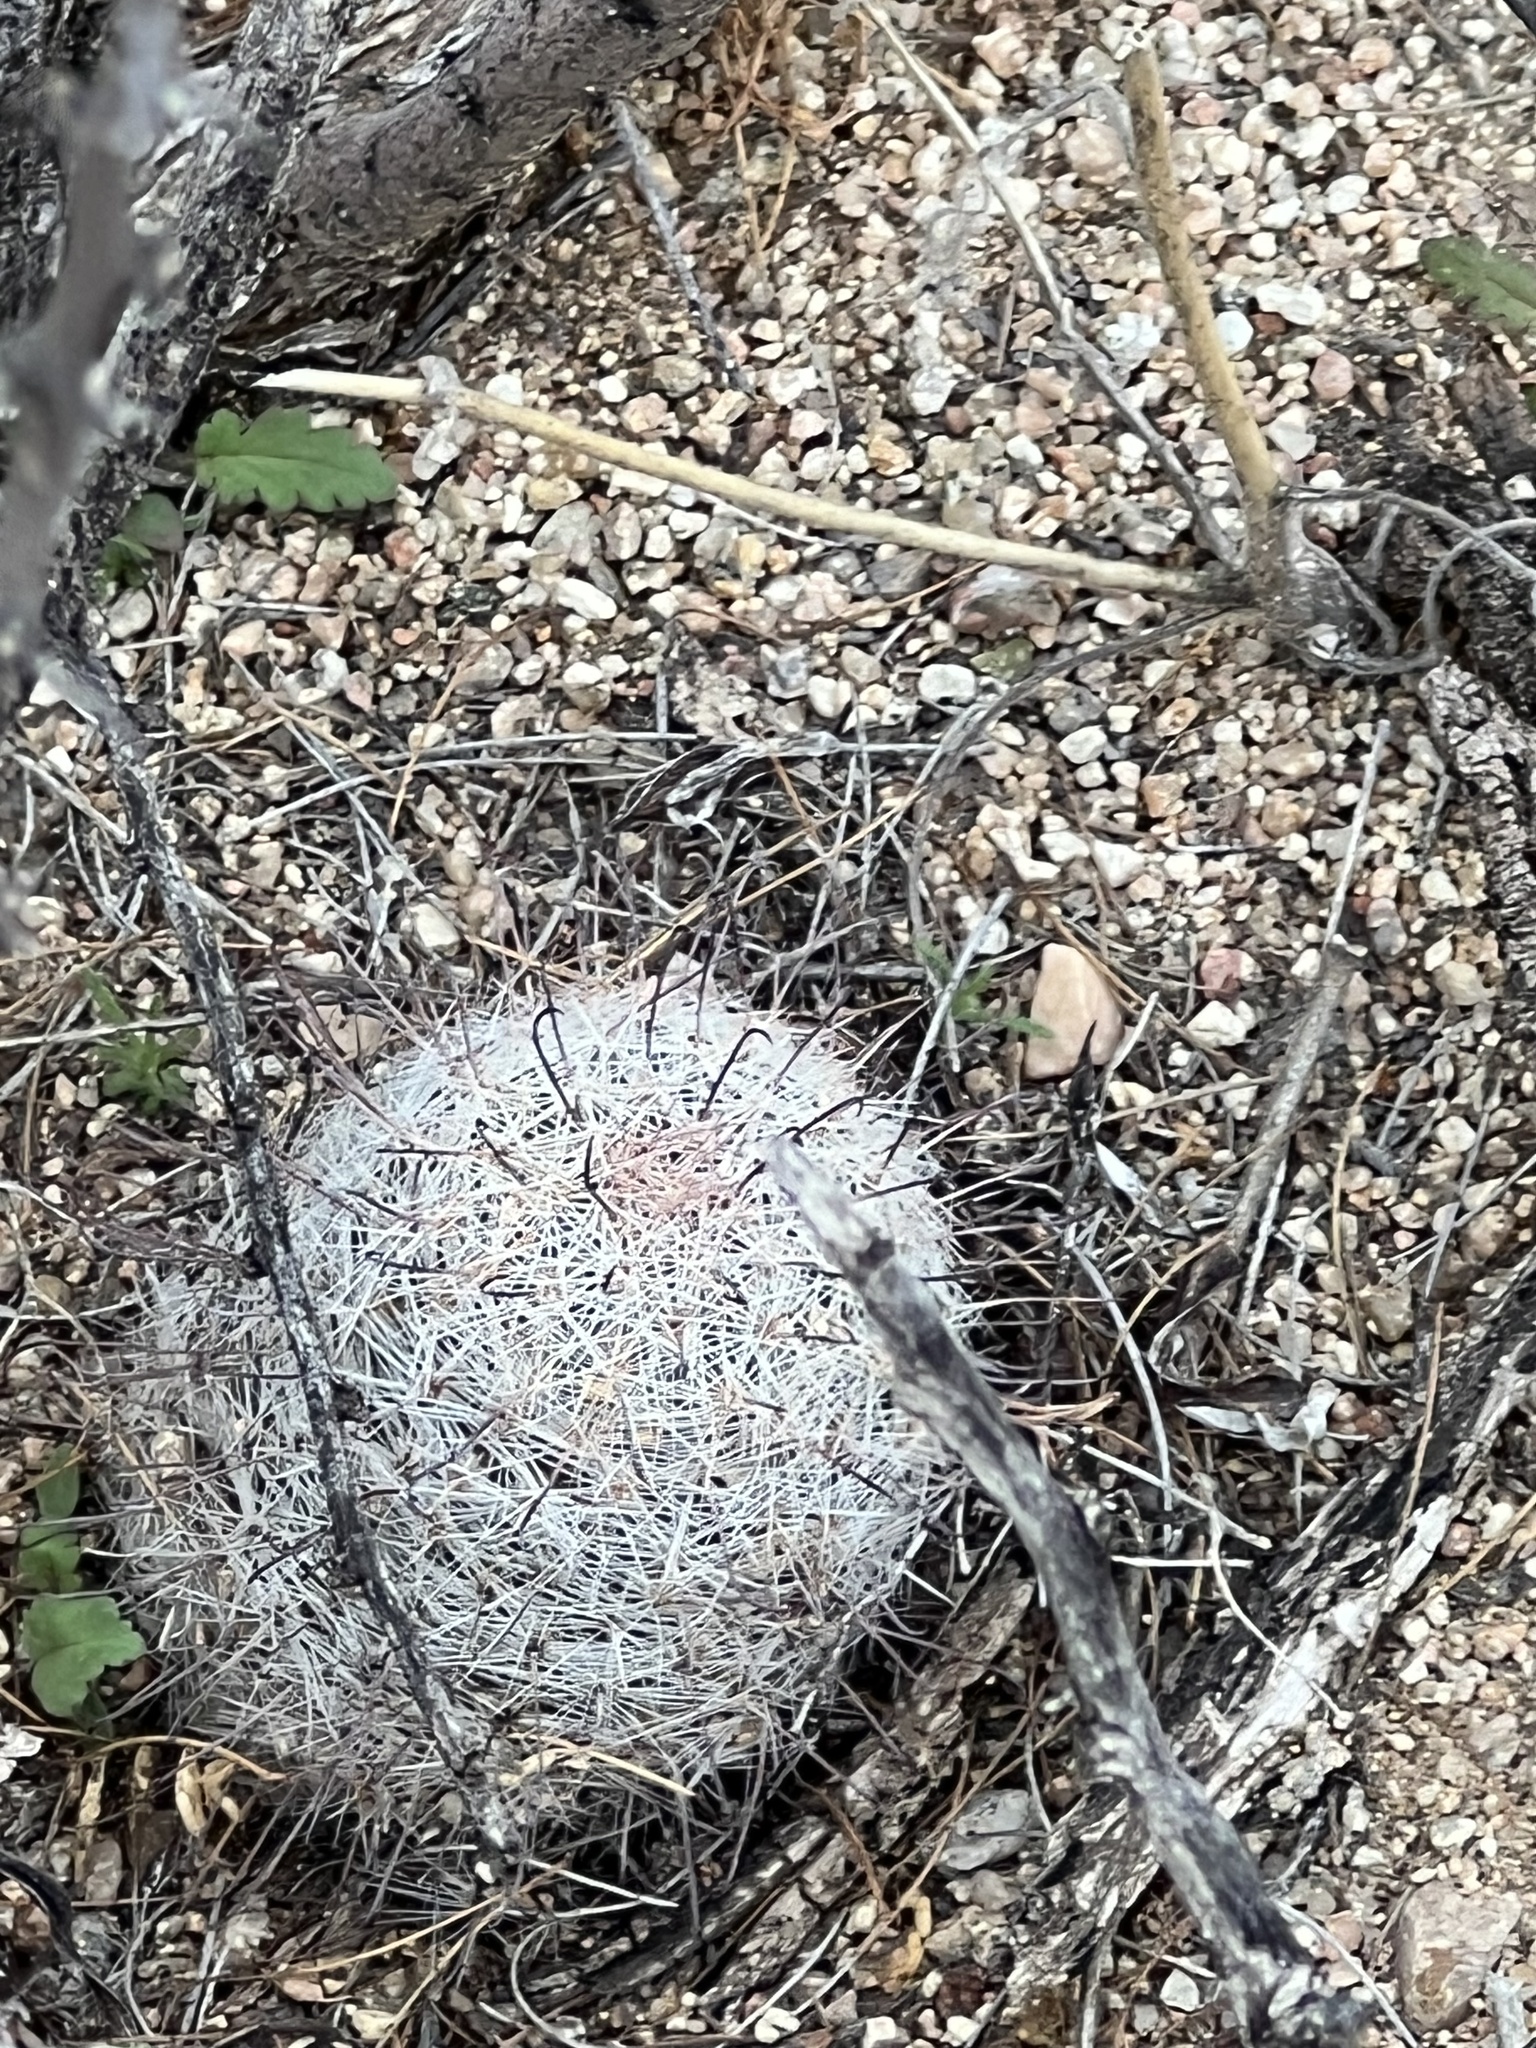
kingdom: Plantae
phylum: Tracheophyta
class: Magnoliopsida
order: Caryophyllales
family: Cactaceae
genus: Cochemiea
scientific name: Cochemiea grahamii
